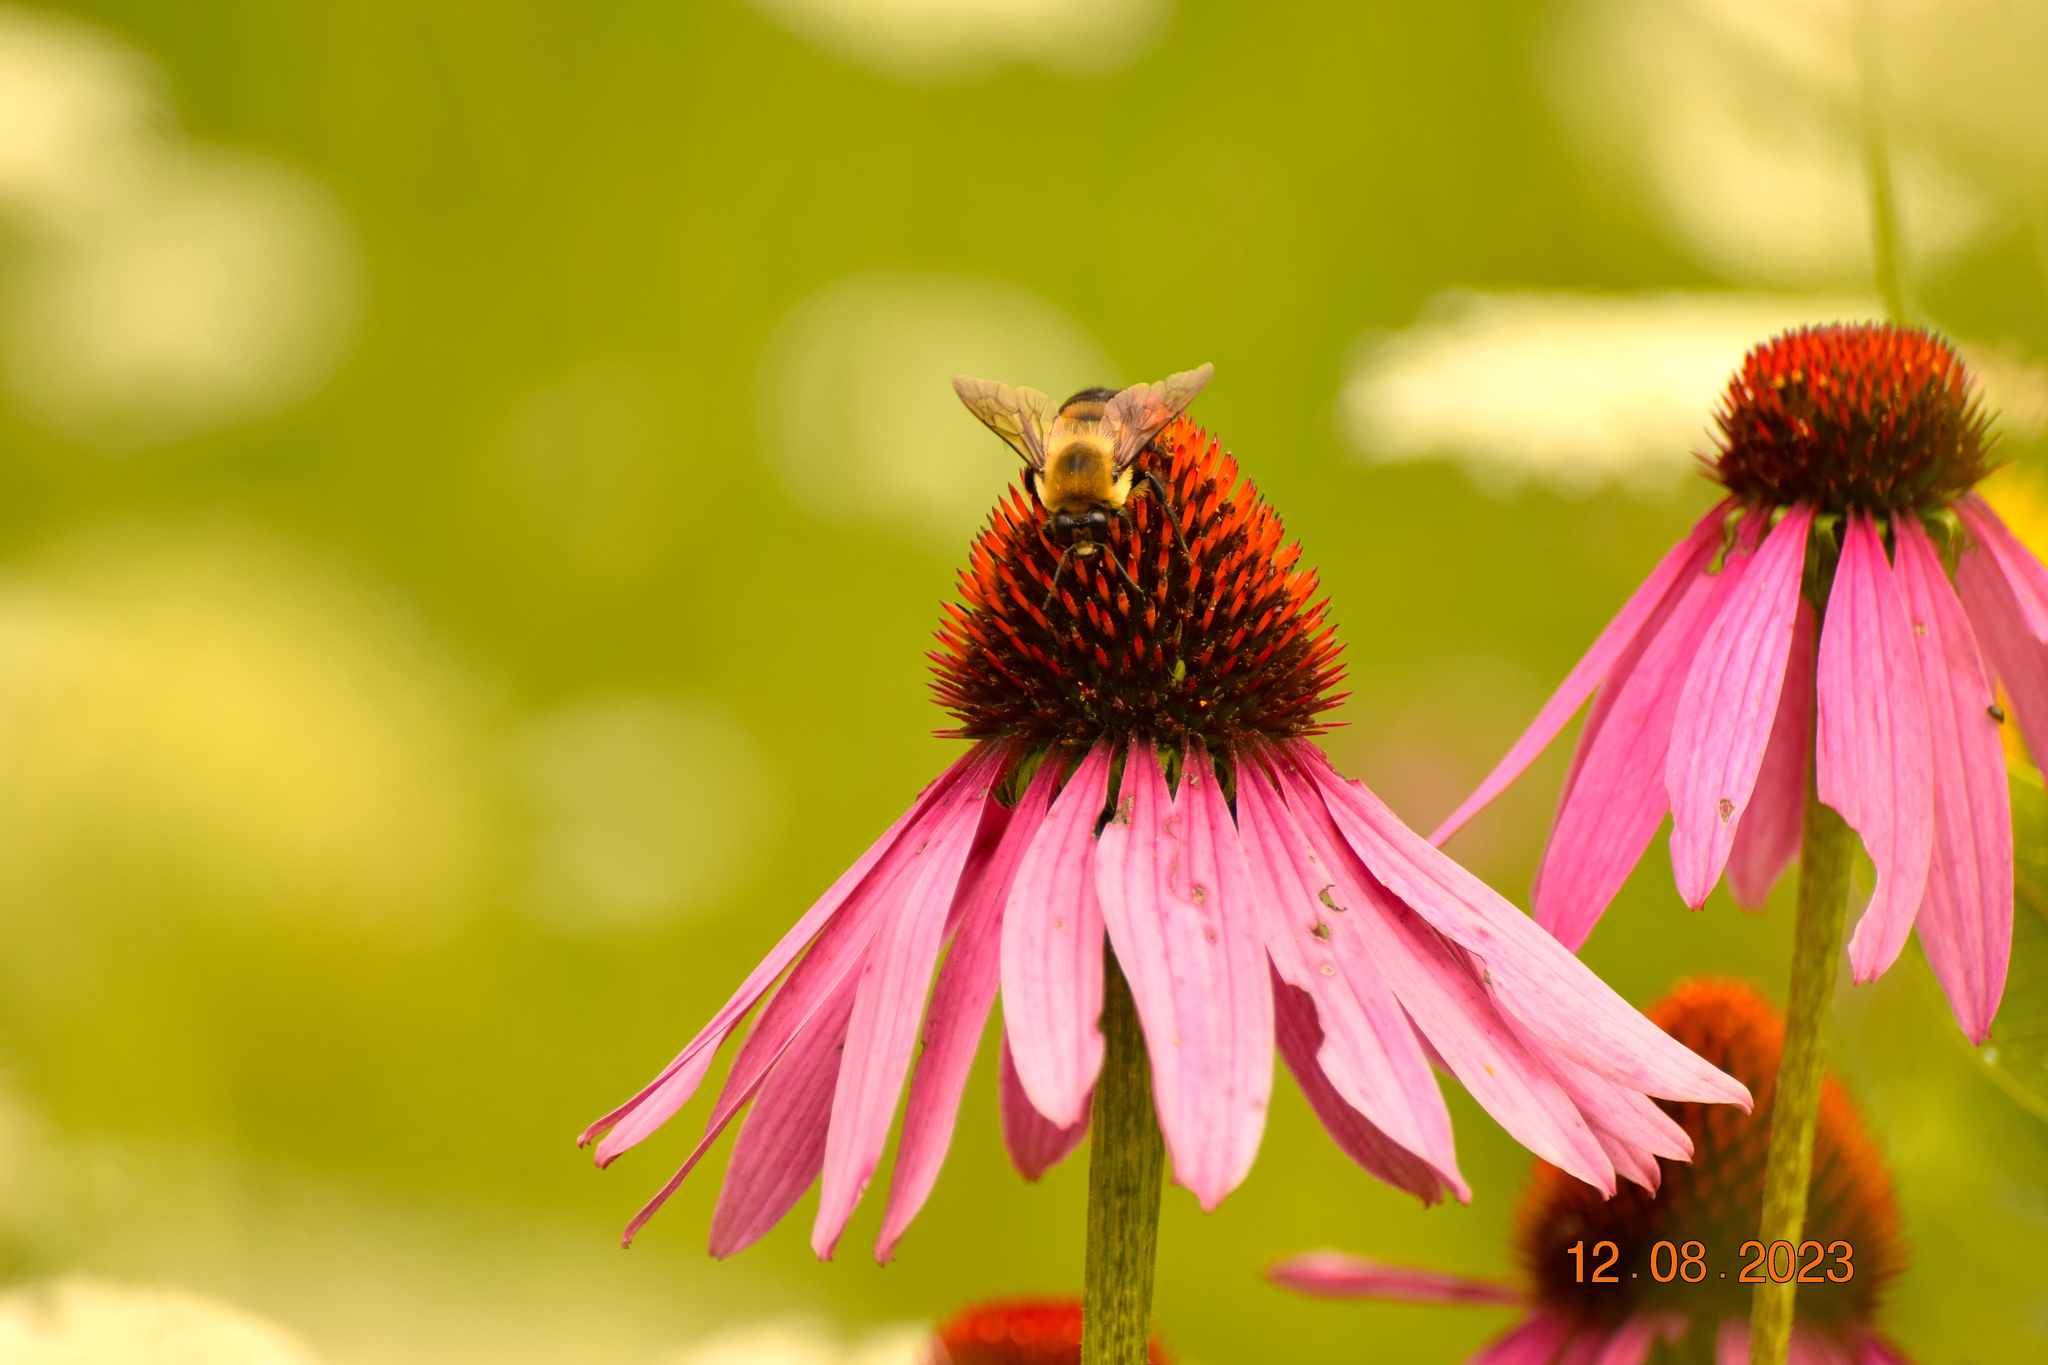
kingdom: Animalia
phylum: Arthropoda
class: Insecta
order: Hymenoptera
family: Apidae
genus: Bombus
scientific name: Bombus griseocollis
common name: Brown-belted bumble bee
